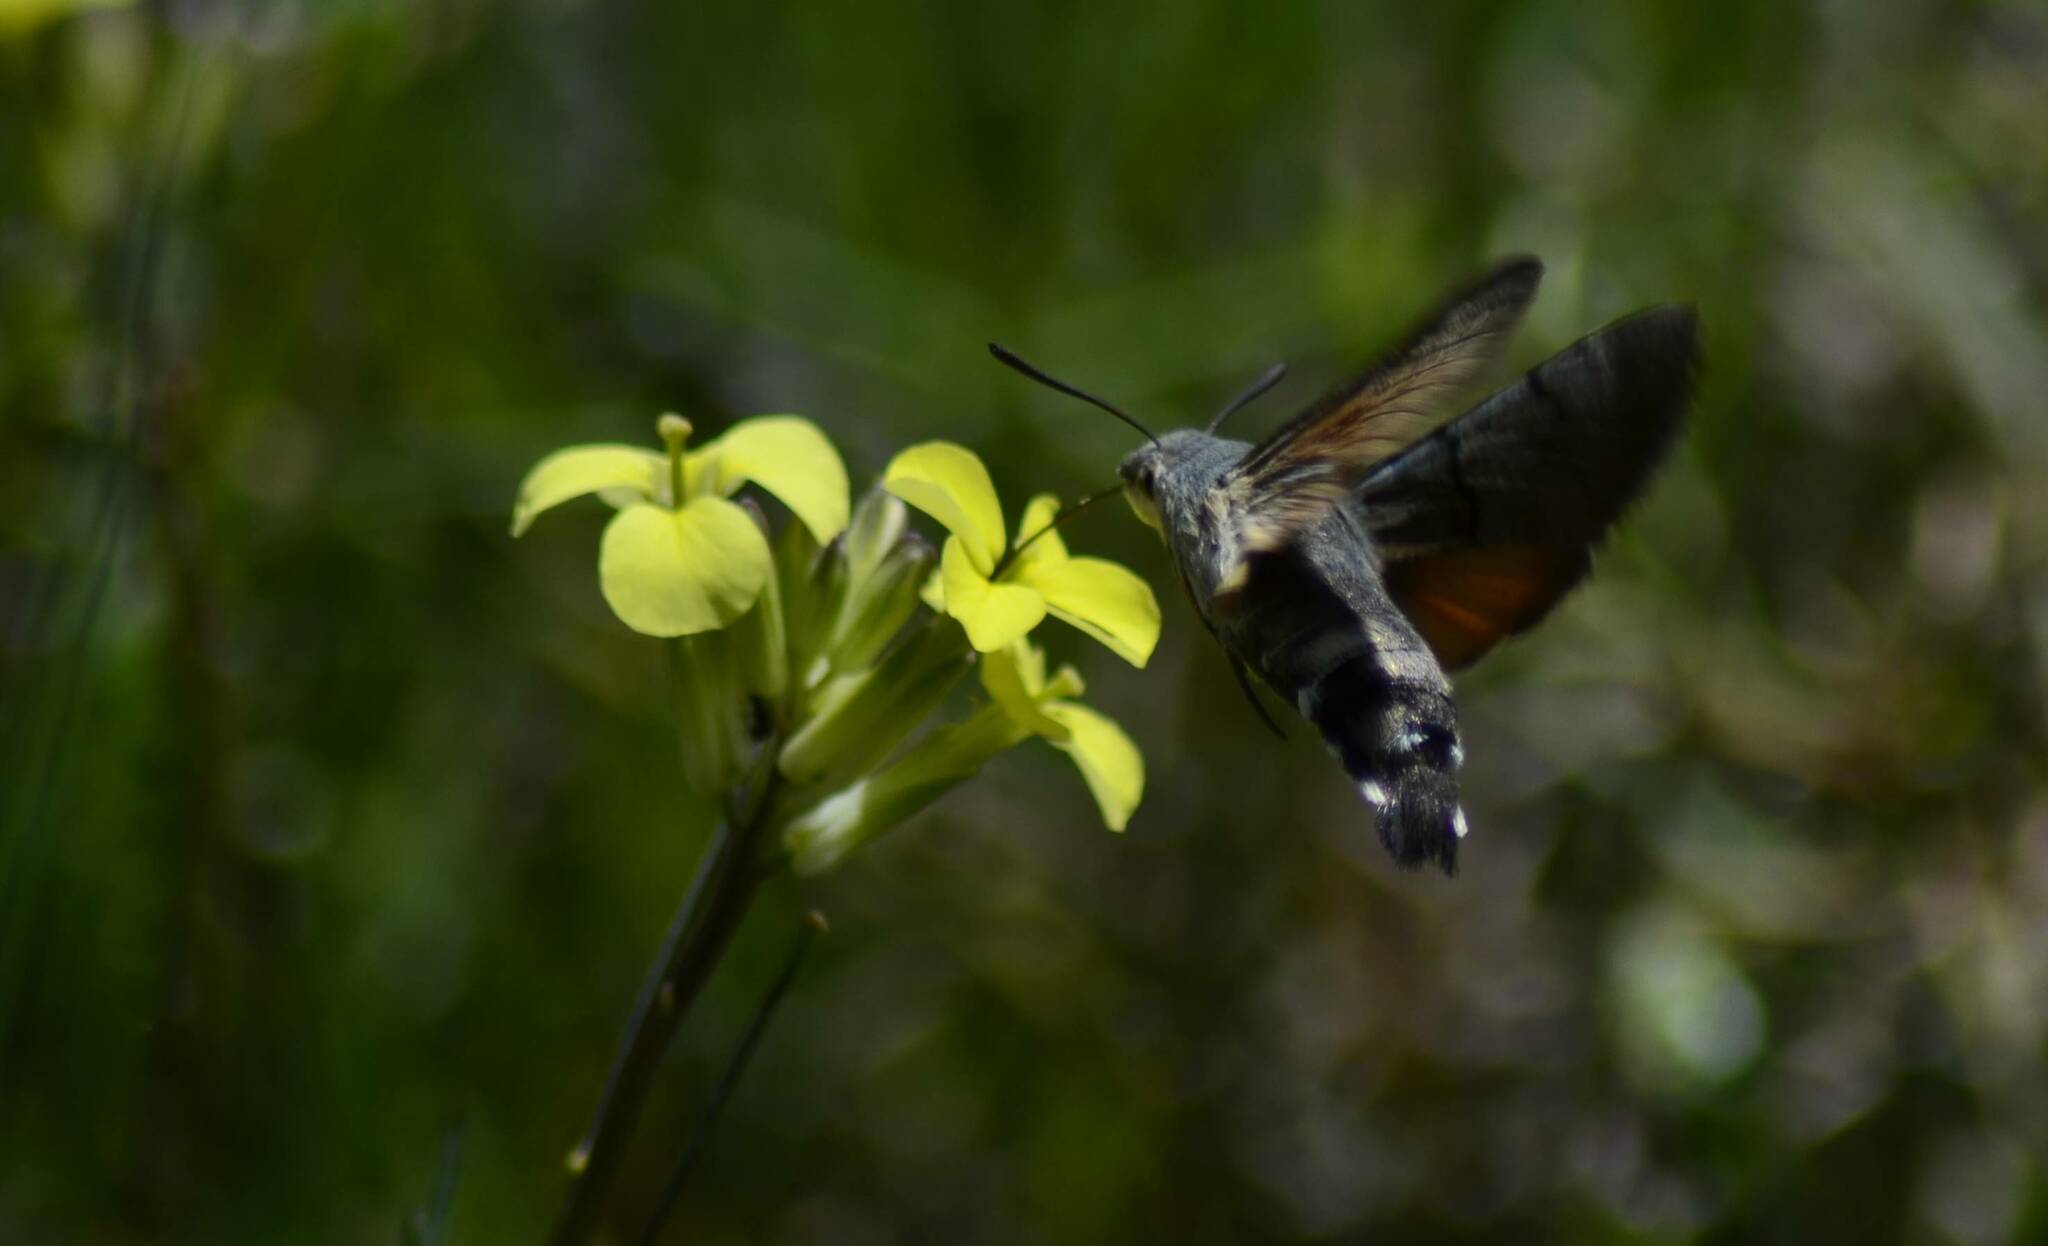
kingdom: Animalia
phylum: Arthropoda
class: Insecta
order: Lepidoptera
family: Sphingidae
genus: Macroglossum
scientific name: Macroglossum stellatarum
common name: Humming-bird hawk-moth
